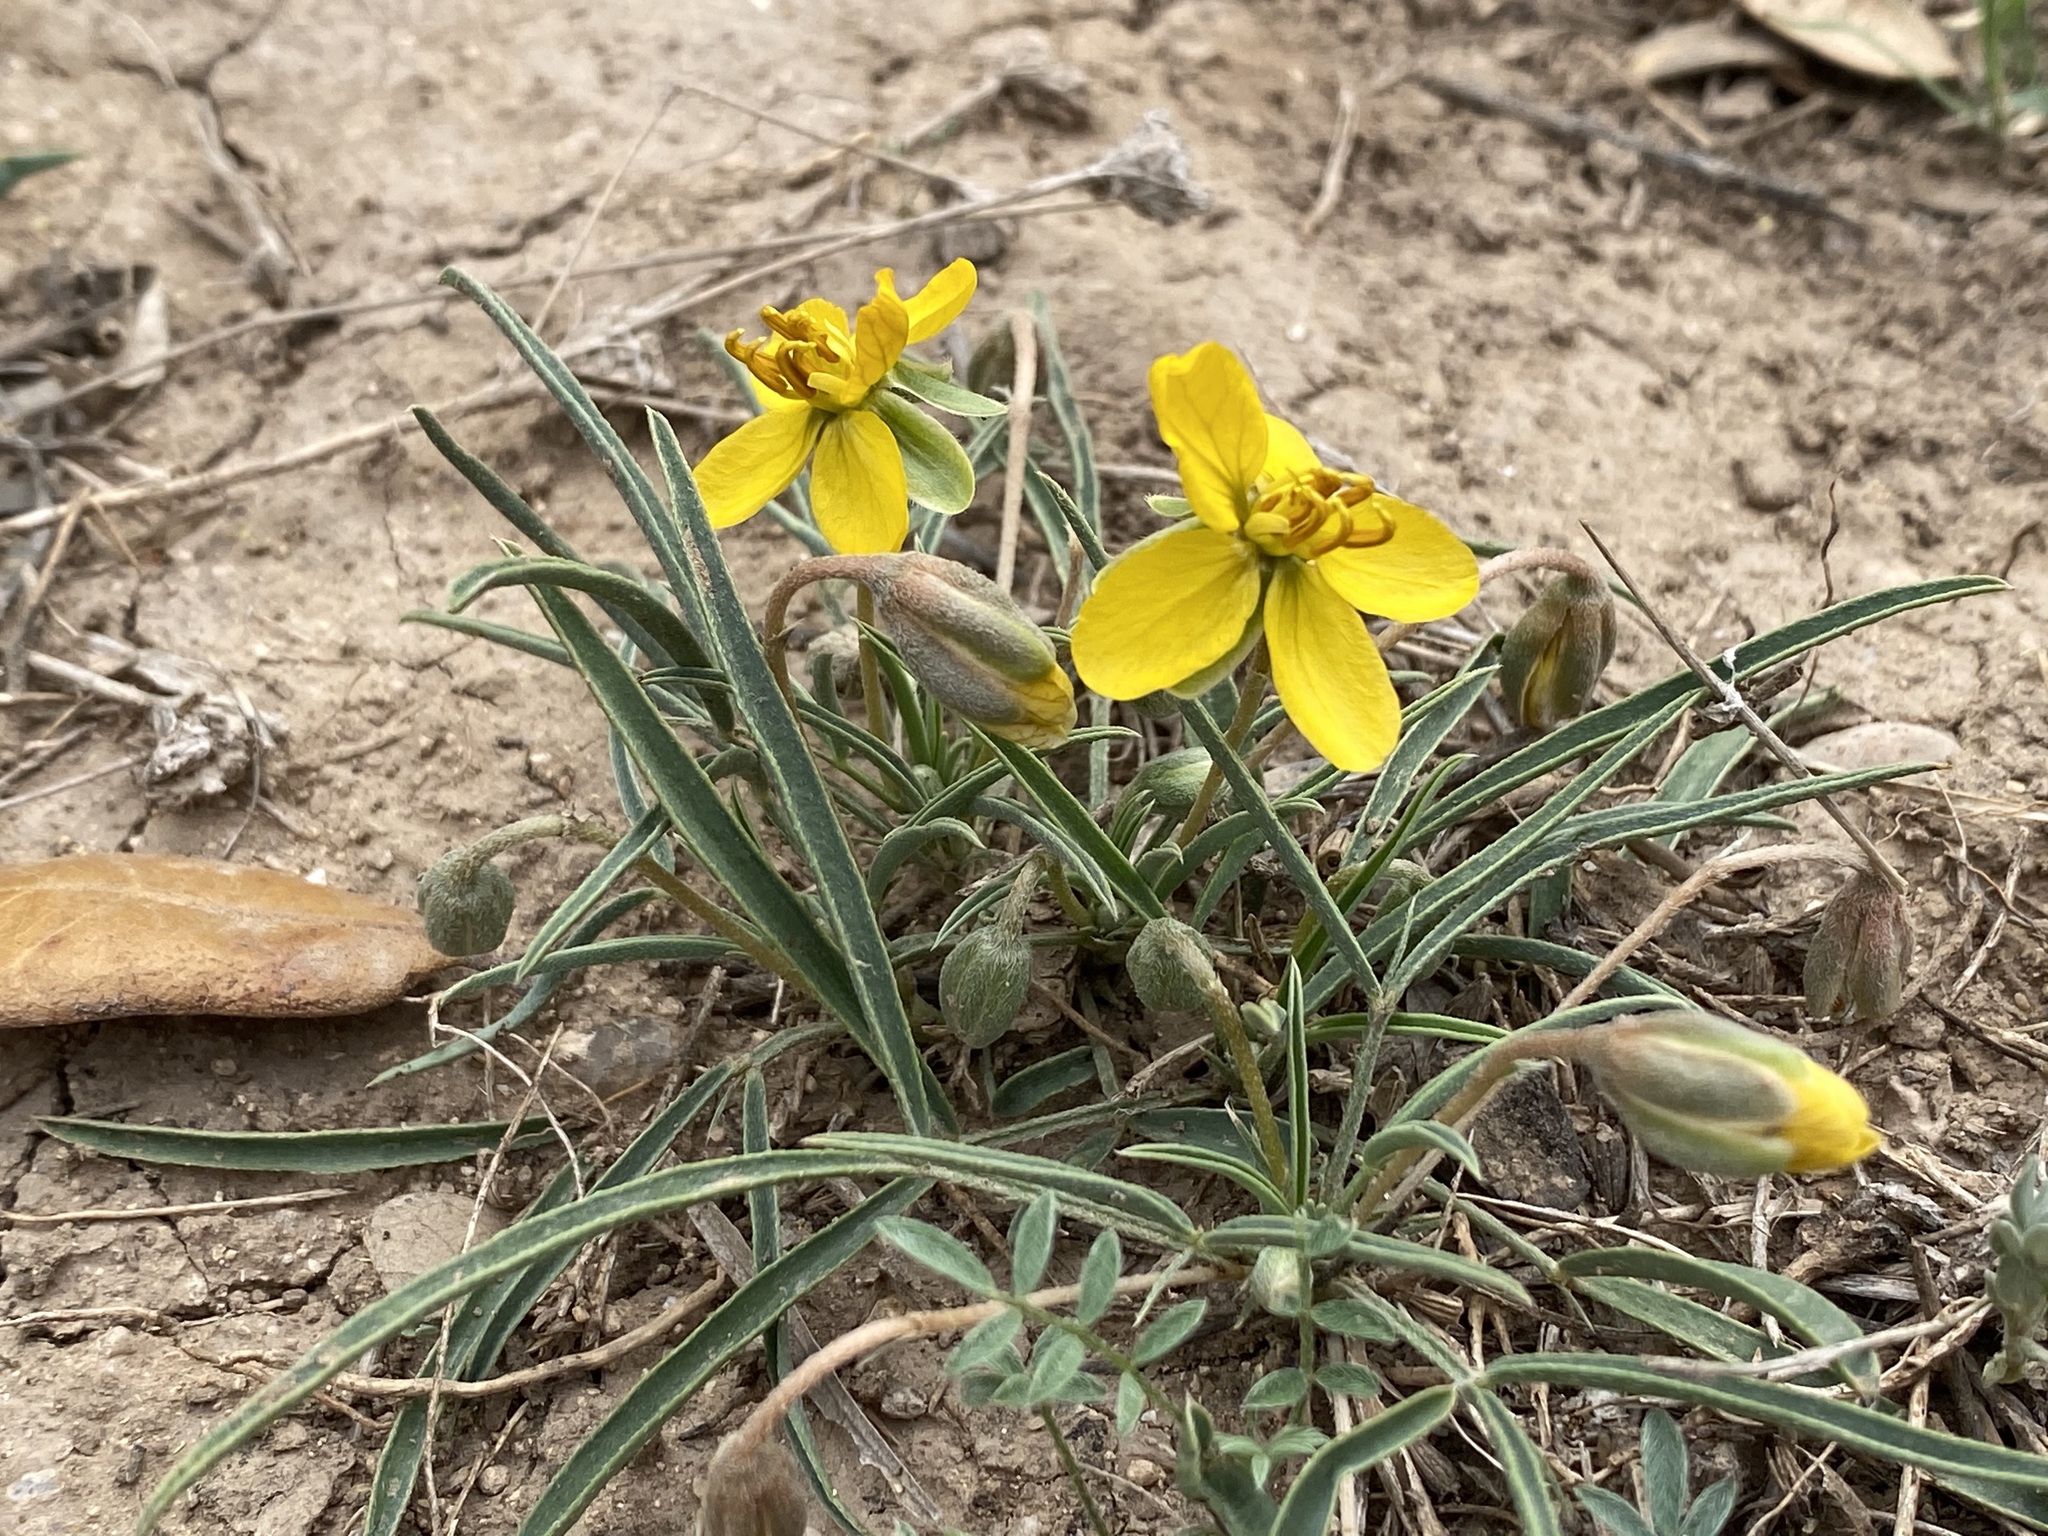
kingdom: Plantae
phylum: Tracheophyta
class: Magnoliopsida
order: Fabales
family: Fabaceae
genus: Senna
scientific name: Senna roemeriana
